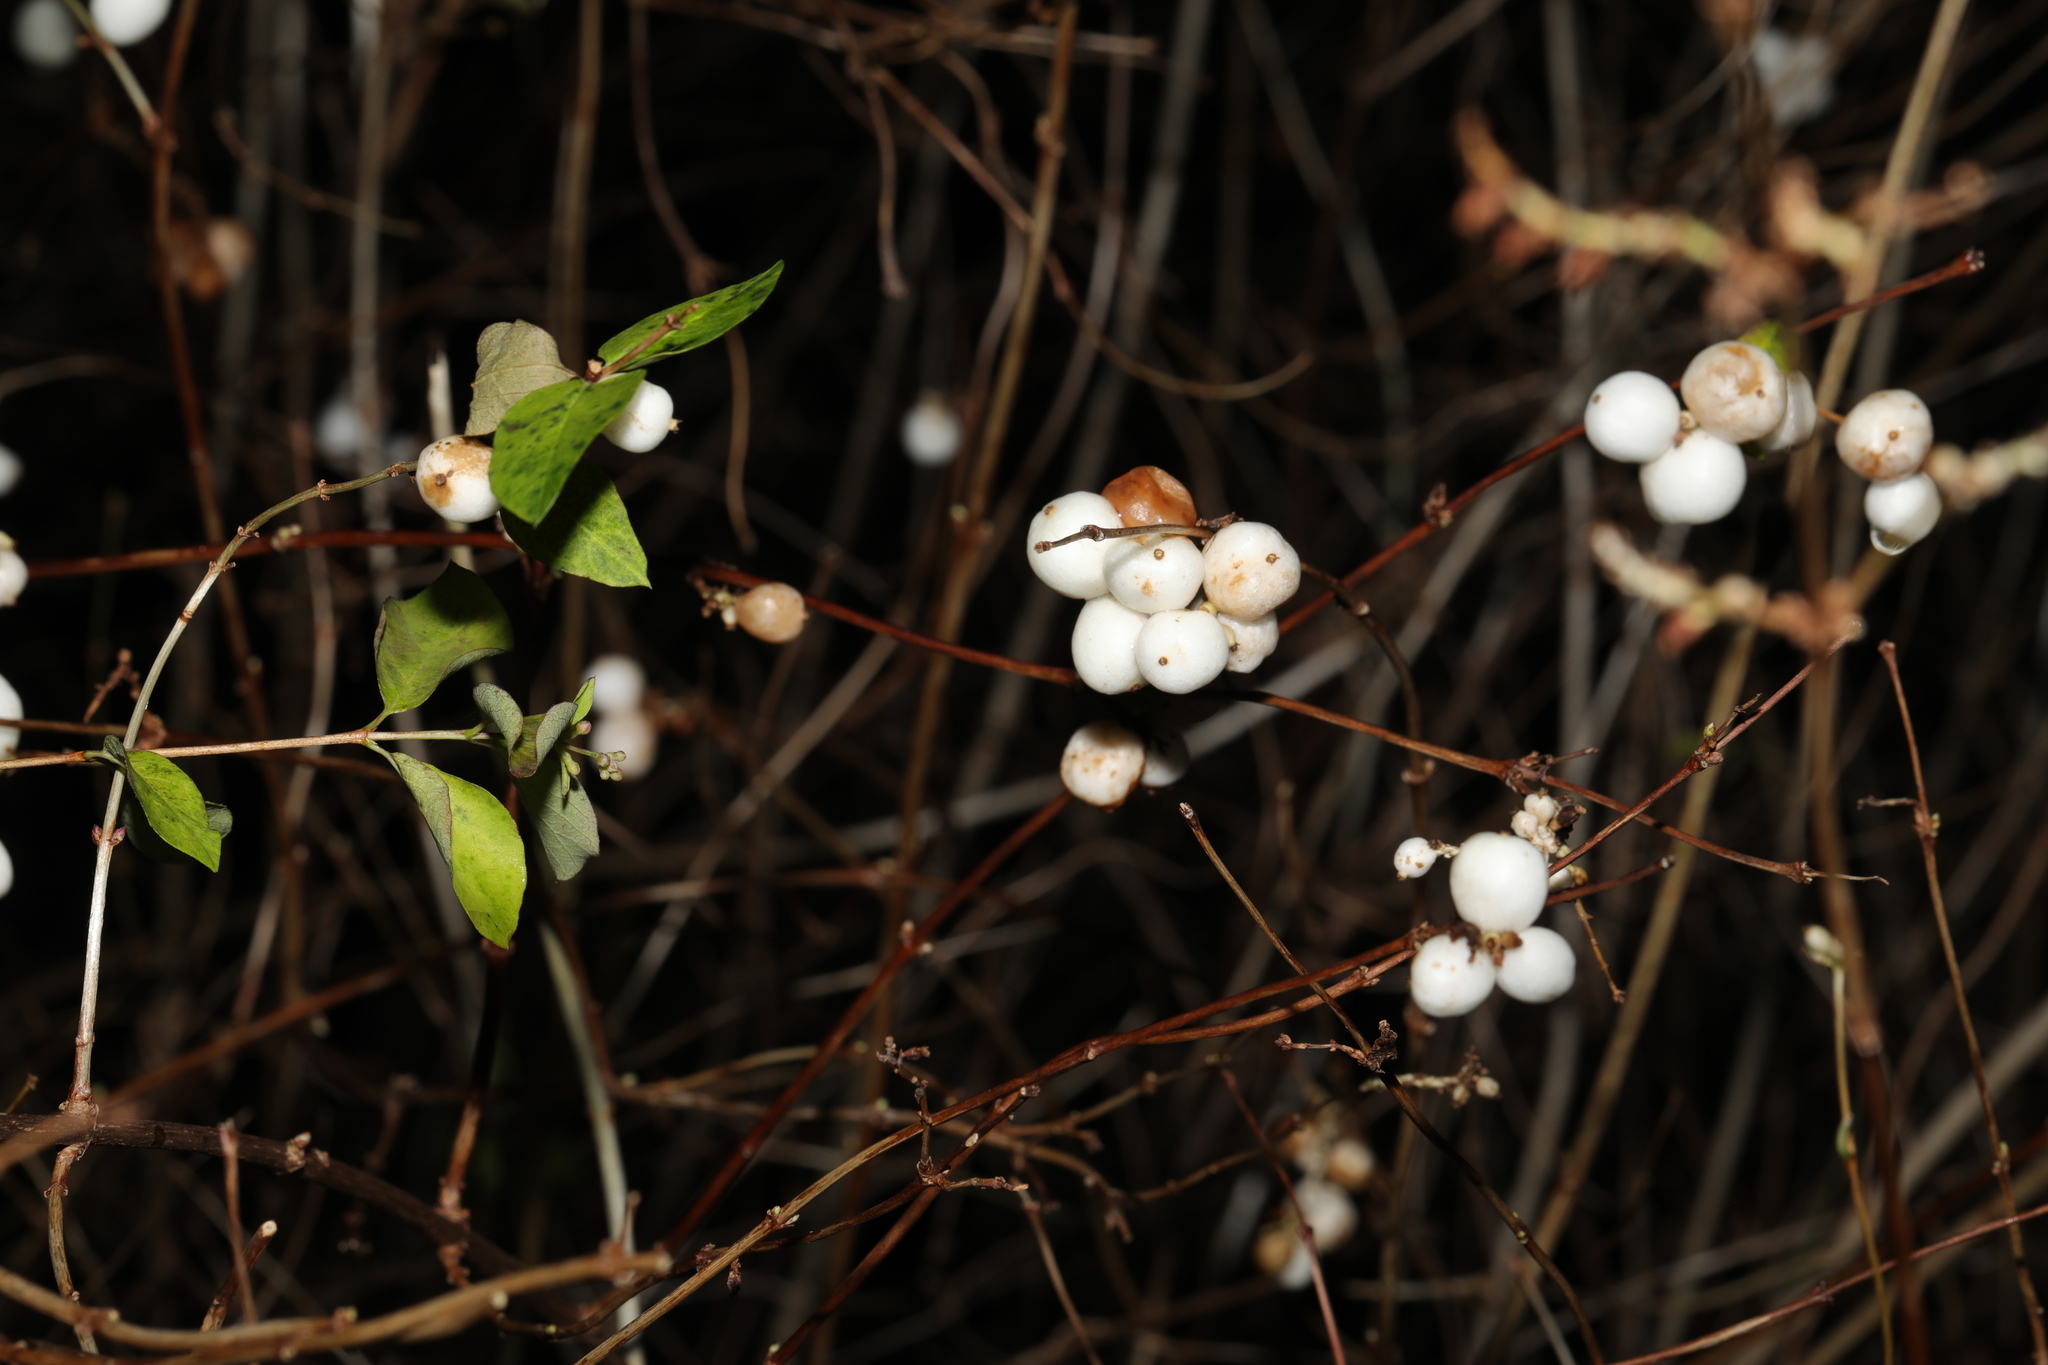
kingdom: Plantae
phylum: Tracheophyta
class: Magnoliopsida
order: Dipsacales
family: Caprifoliaceae
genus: Symphoricarpos
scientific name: Symphoricarpos albus
